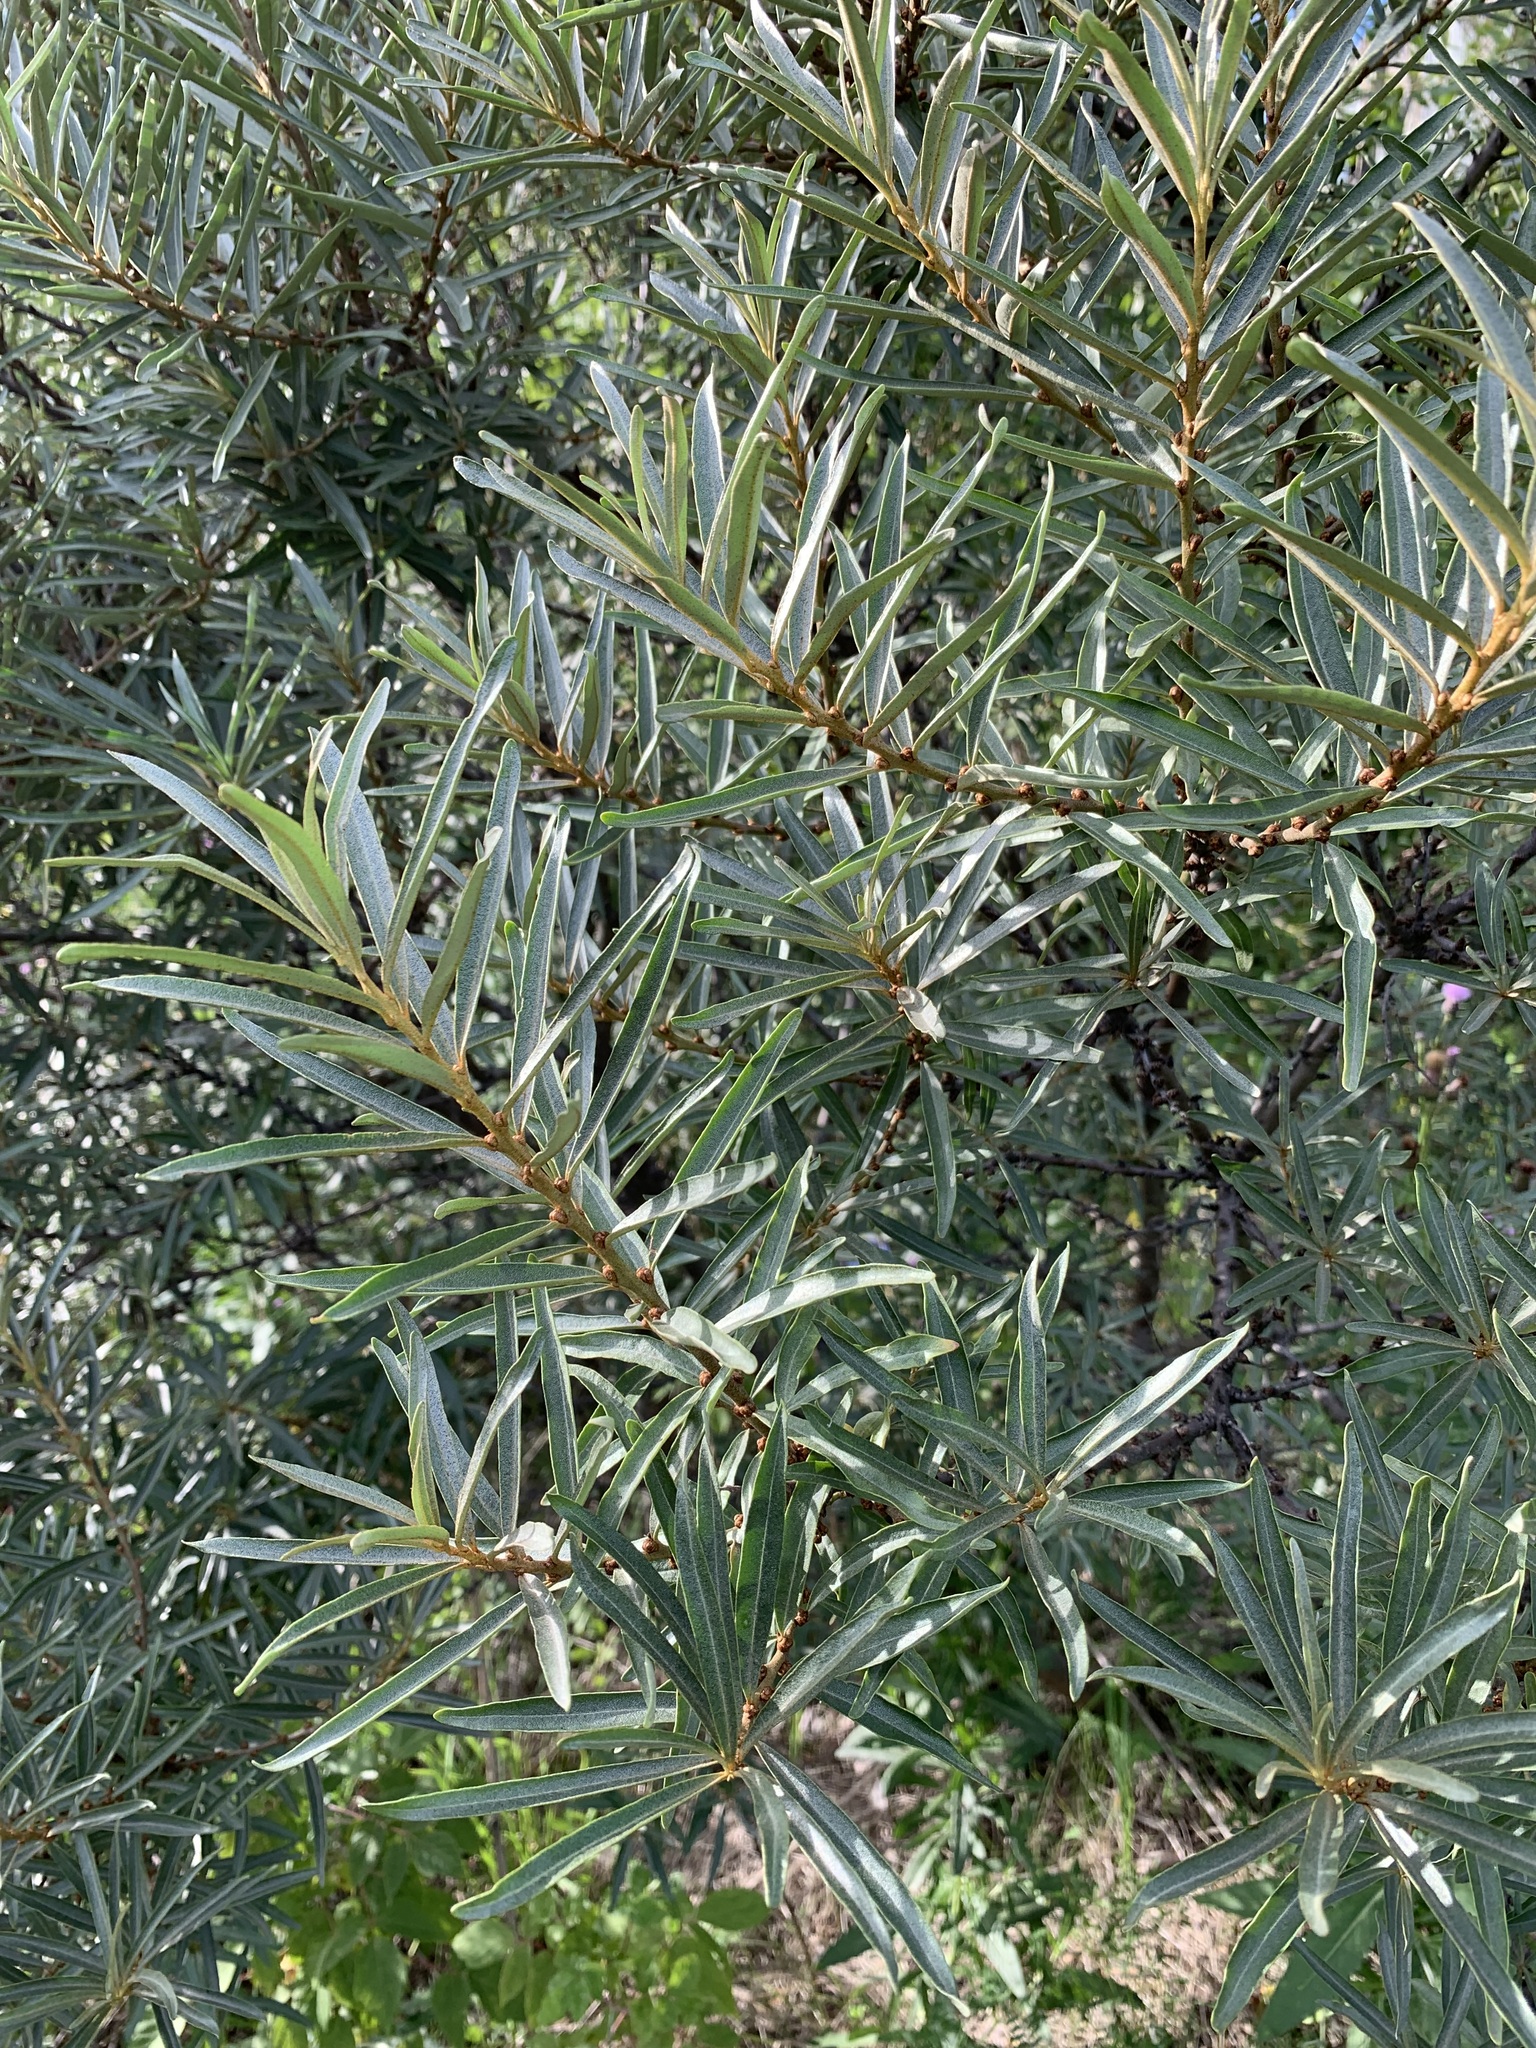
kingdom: Plantae
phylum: Tracheophyta
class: Magnoliopsida
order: Rosales
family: Elaeagnaceae
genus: Hippophae
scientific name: Hippophae rhamnoides
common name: Sea-buckthorn
